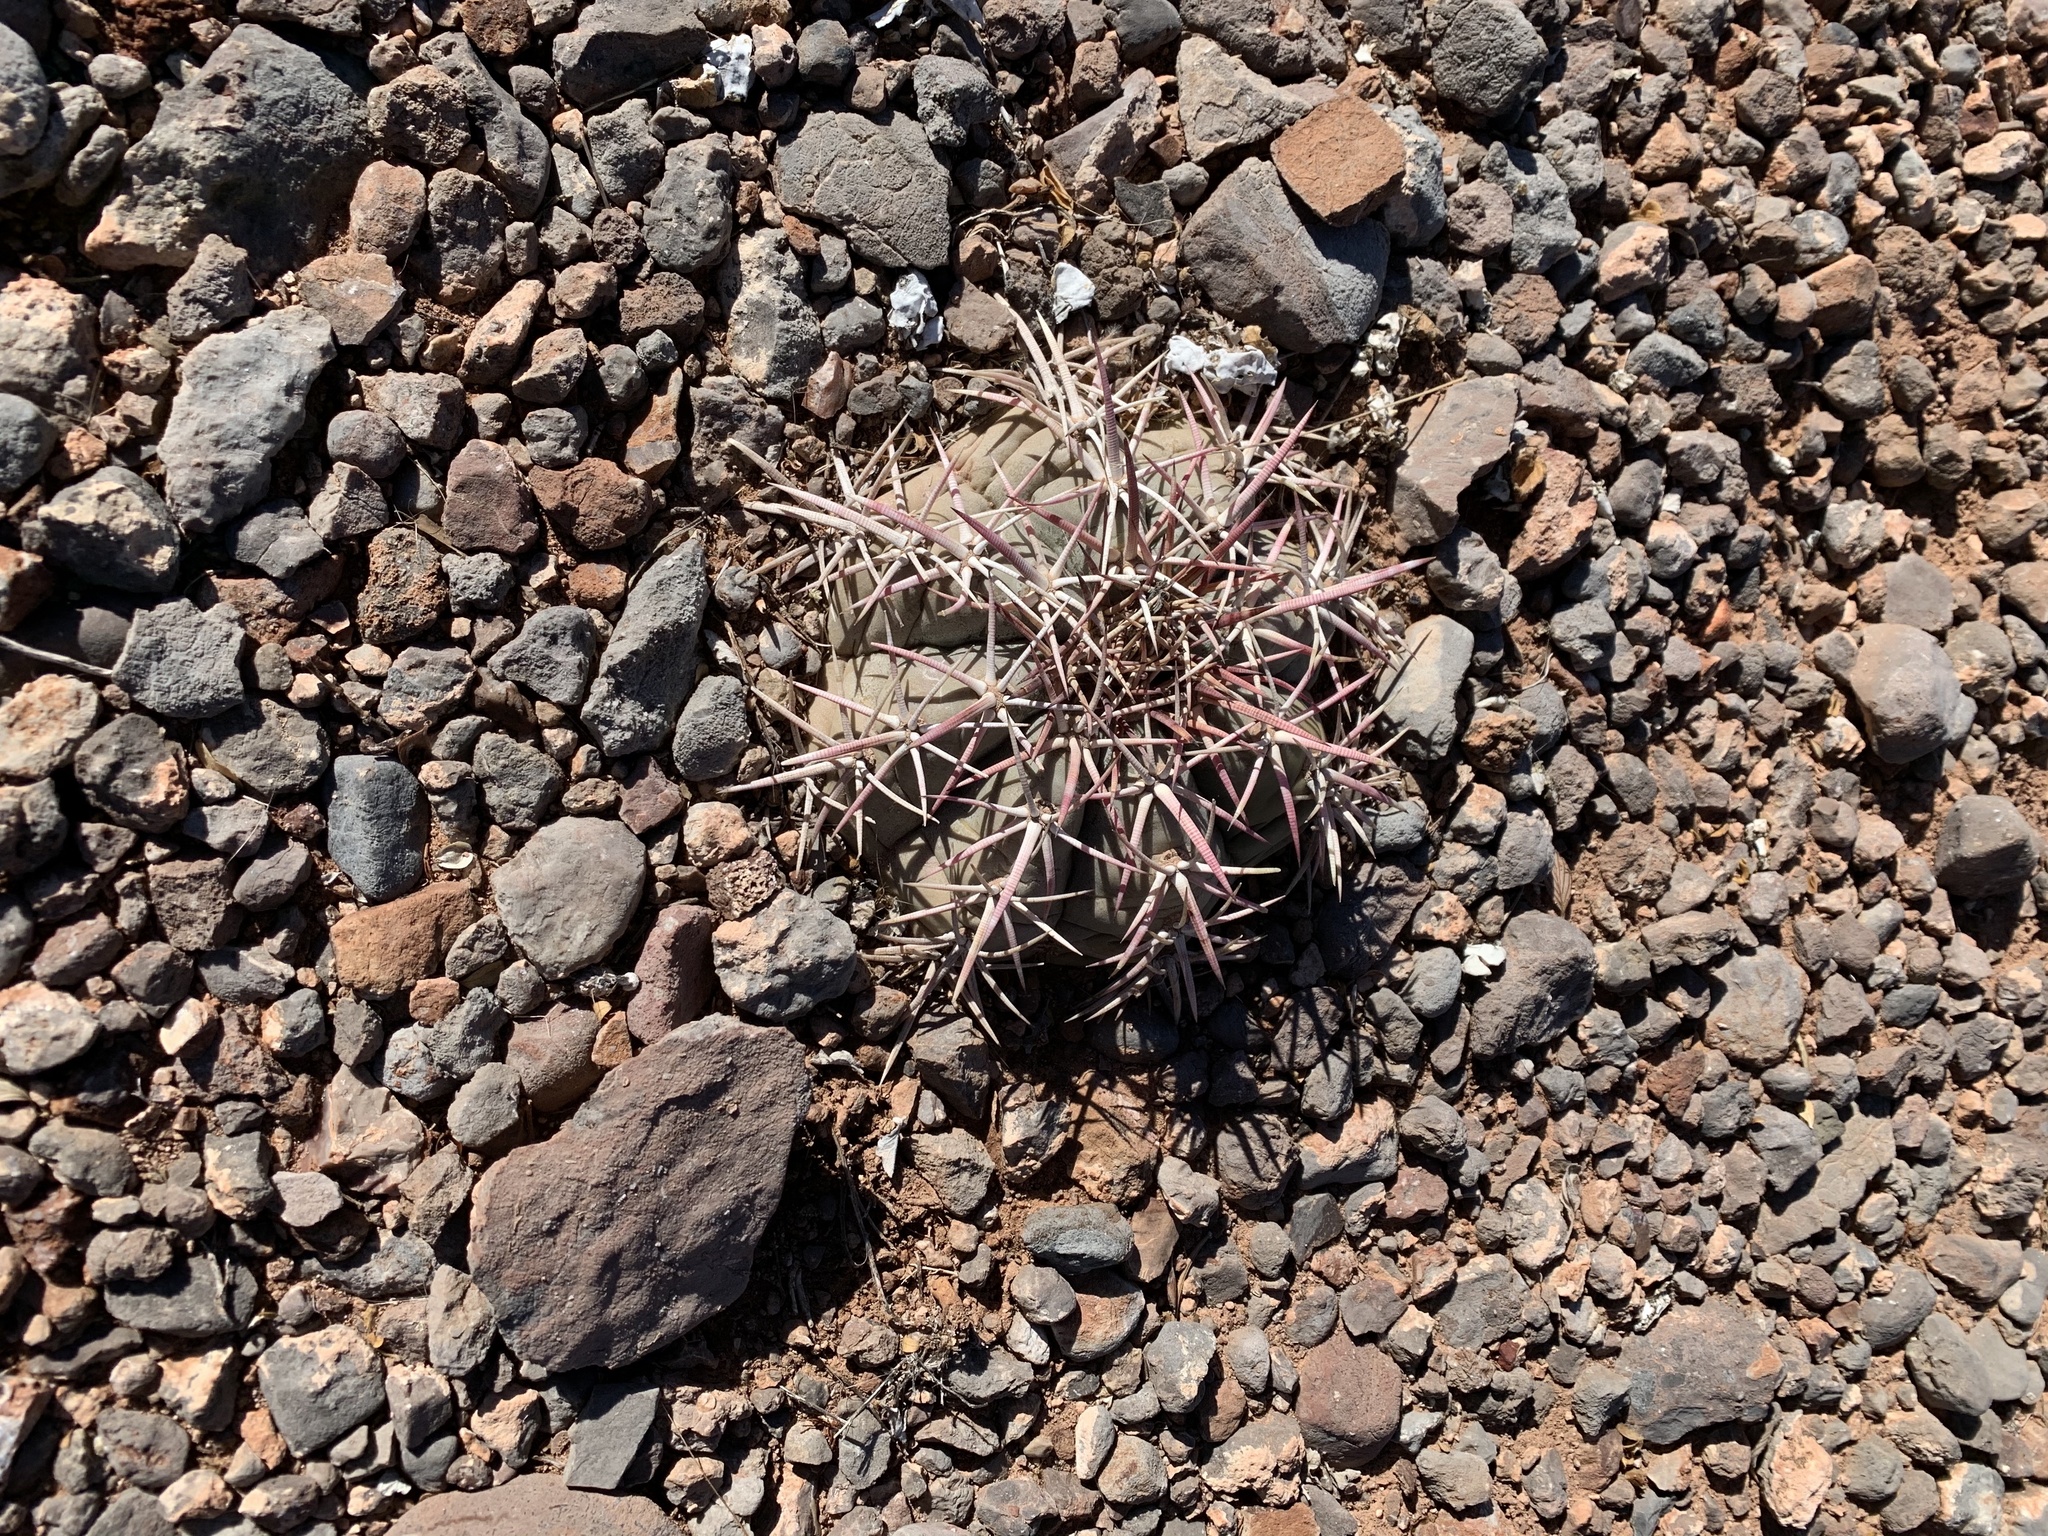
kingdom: Plantae
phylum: Tracheophyta
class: Magnoliopsida
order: Caryophyllales
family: Cactaceae
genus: Echinocactus
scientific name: Echinocactus horizonthalonius
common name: Devilshead
